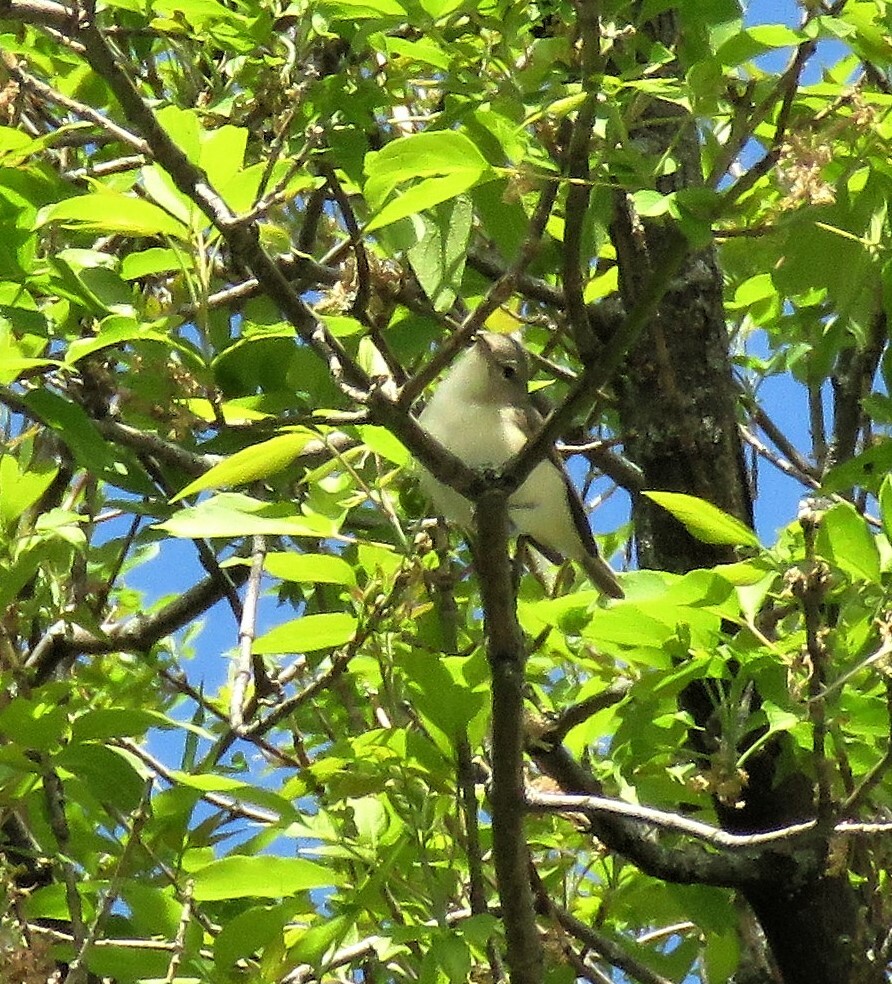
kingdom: Animalia
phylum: Chordata
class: Aves
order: Passeriformes
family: Vireonidae
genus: Vireo
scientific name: Vireo gilvus
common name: Warbling vireo
